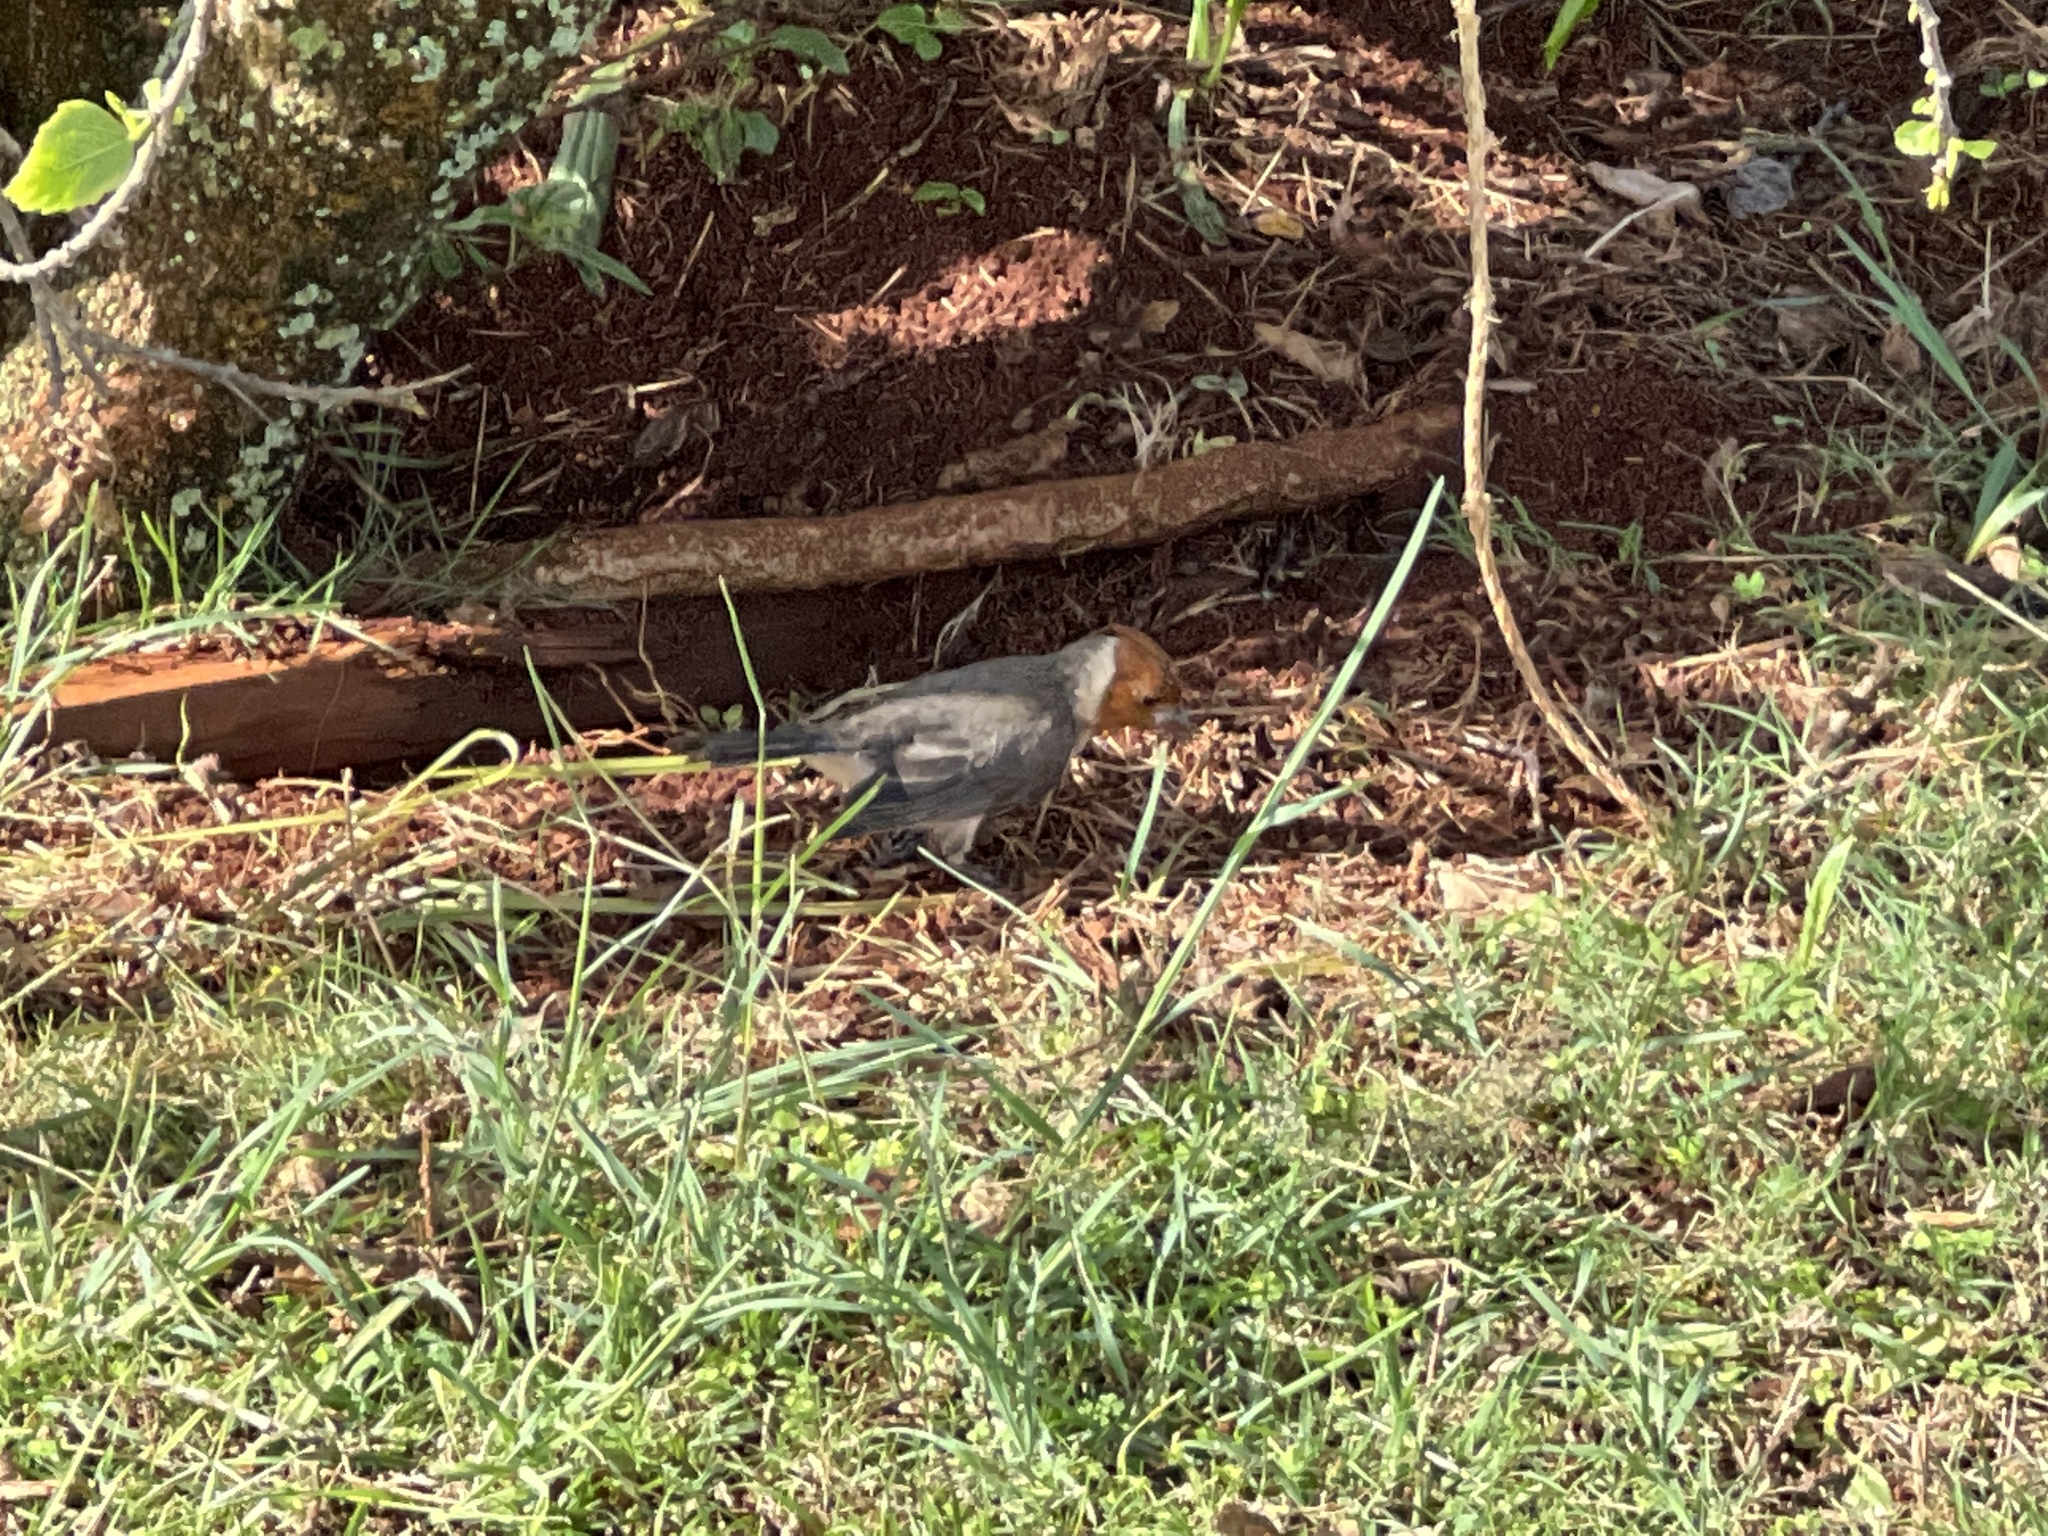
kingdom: Animalia
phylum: Chordata
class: Aves
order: Passeriformes
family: Thraupidae
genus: Paroaria
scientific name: Paroaria coronata
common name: Red-crested cardinal
